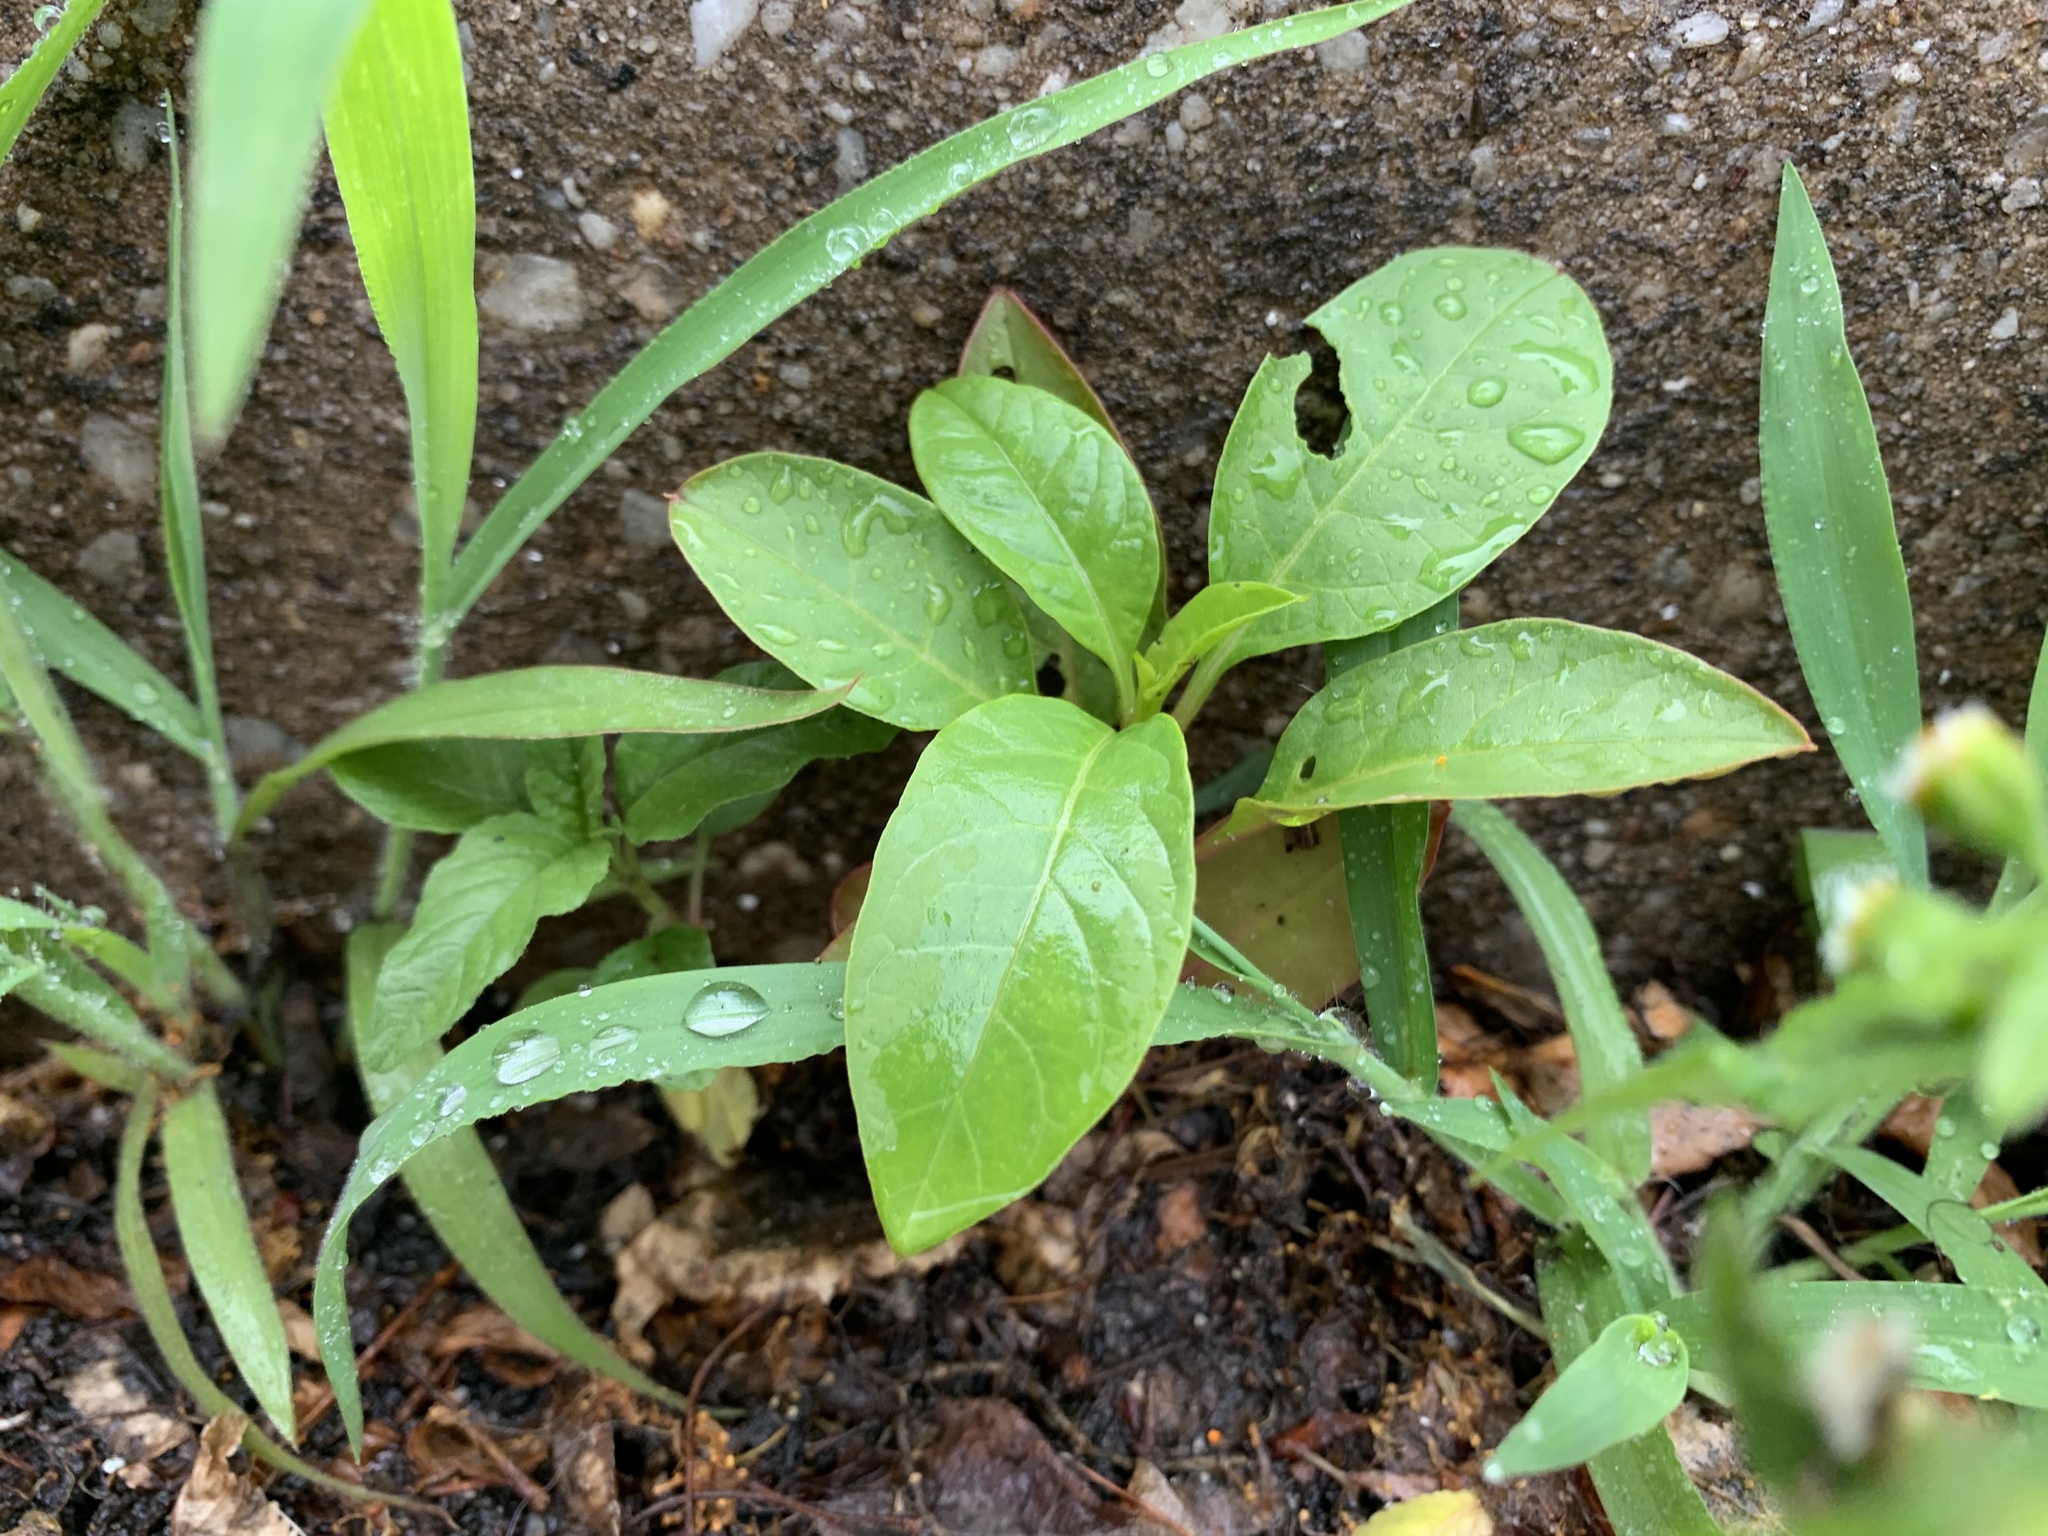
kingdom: Plantae
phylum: Tracheophyta
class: Magnoliopsida
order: Caryophyllales
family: Phytolaccaceae
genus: Phytolacca
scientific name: Phytolacca americana
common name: American pokeweed
